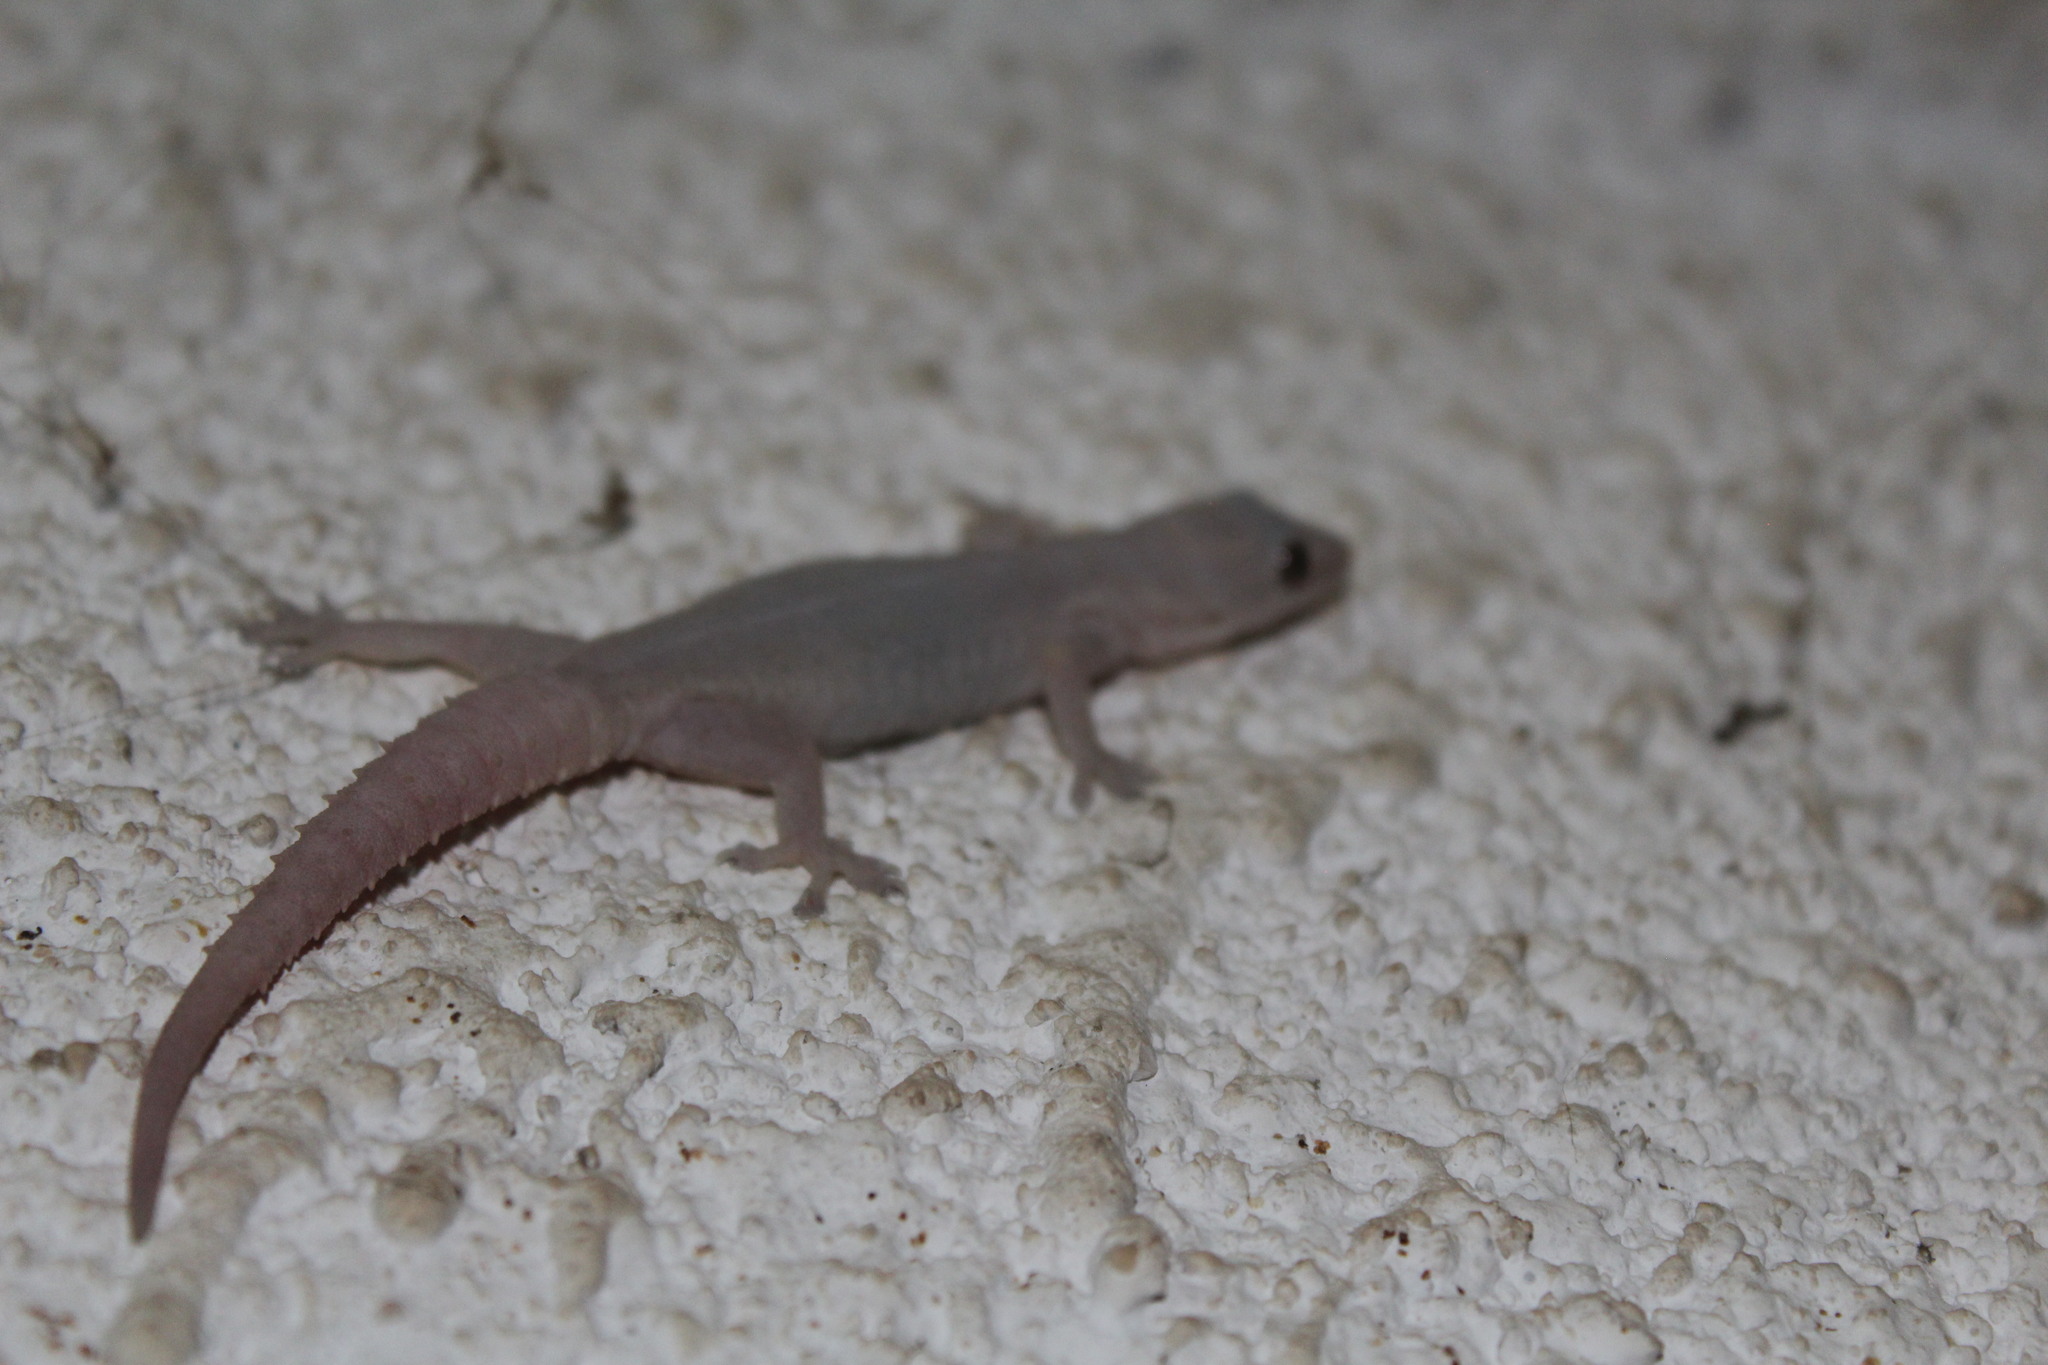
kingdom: Animalia
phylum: Chordata
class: Squamata
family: Gekkonidae
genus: Hemidactylus
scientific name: Hemidactylus frenatus
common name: Common house gecko
